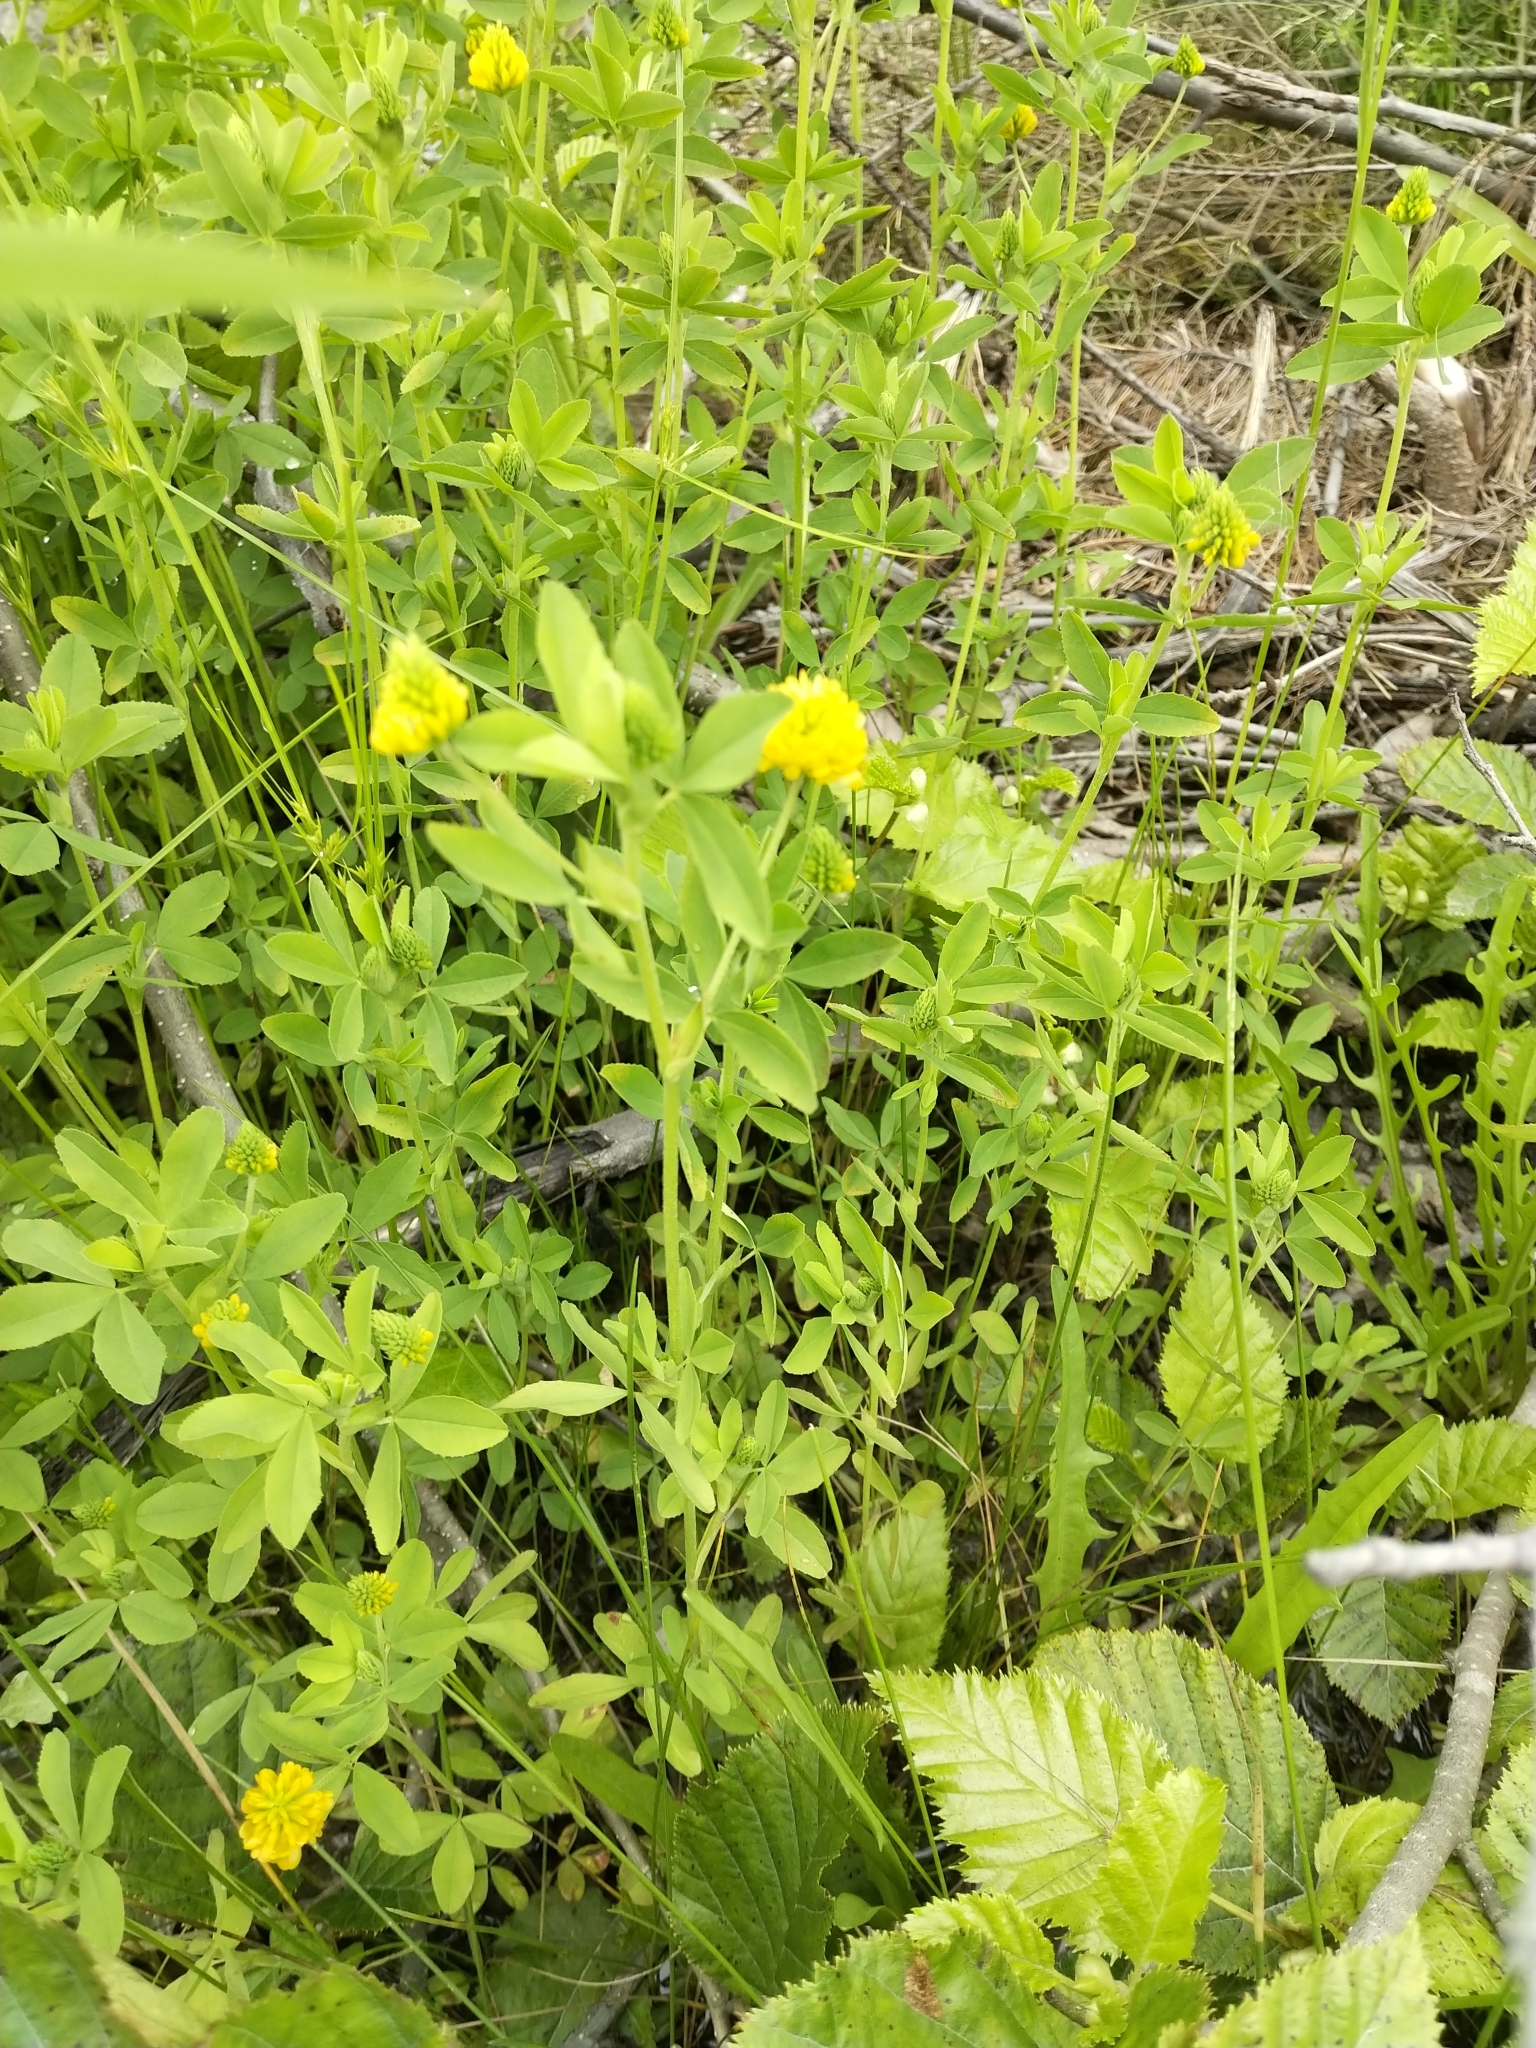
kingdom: Plantae
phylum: Tracheophyta
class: Magnoliopsida
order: Fabales
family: Fabaceae
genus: Trifolium
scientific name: Trifolium aureum
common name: Golden clover
